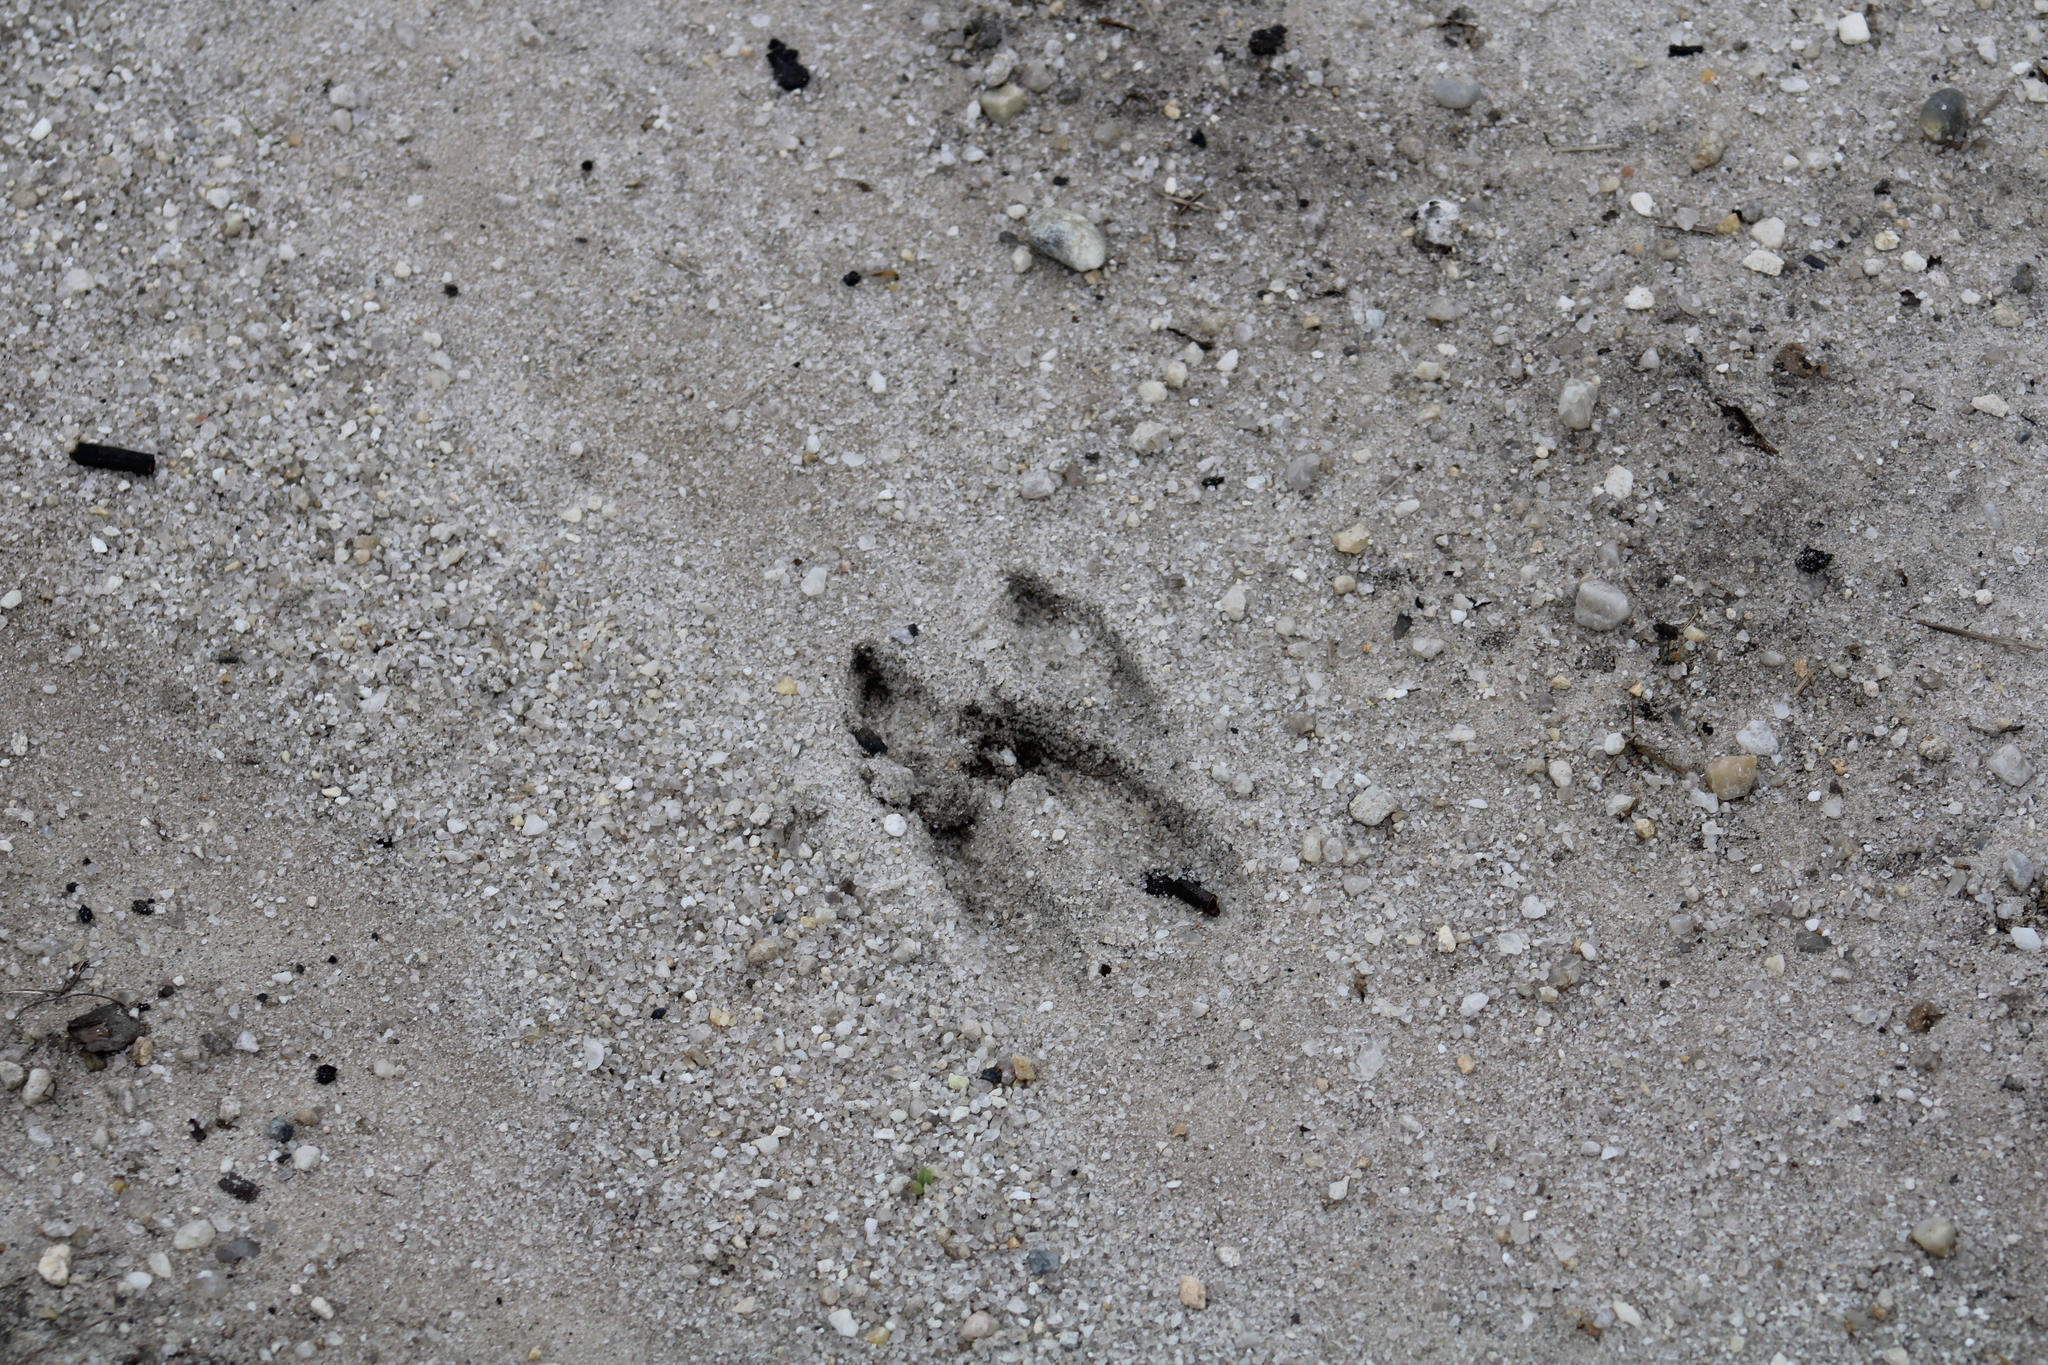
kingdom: Animalia
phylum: Chordata
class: Mammalia
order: Artiodactyla
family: Cervidae
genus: Odocoileus
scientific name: Odocoileus virginianus
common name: White-tailed deer
